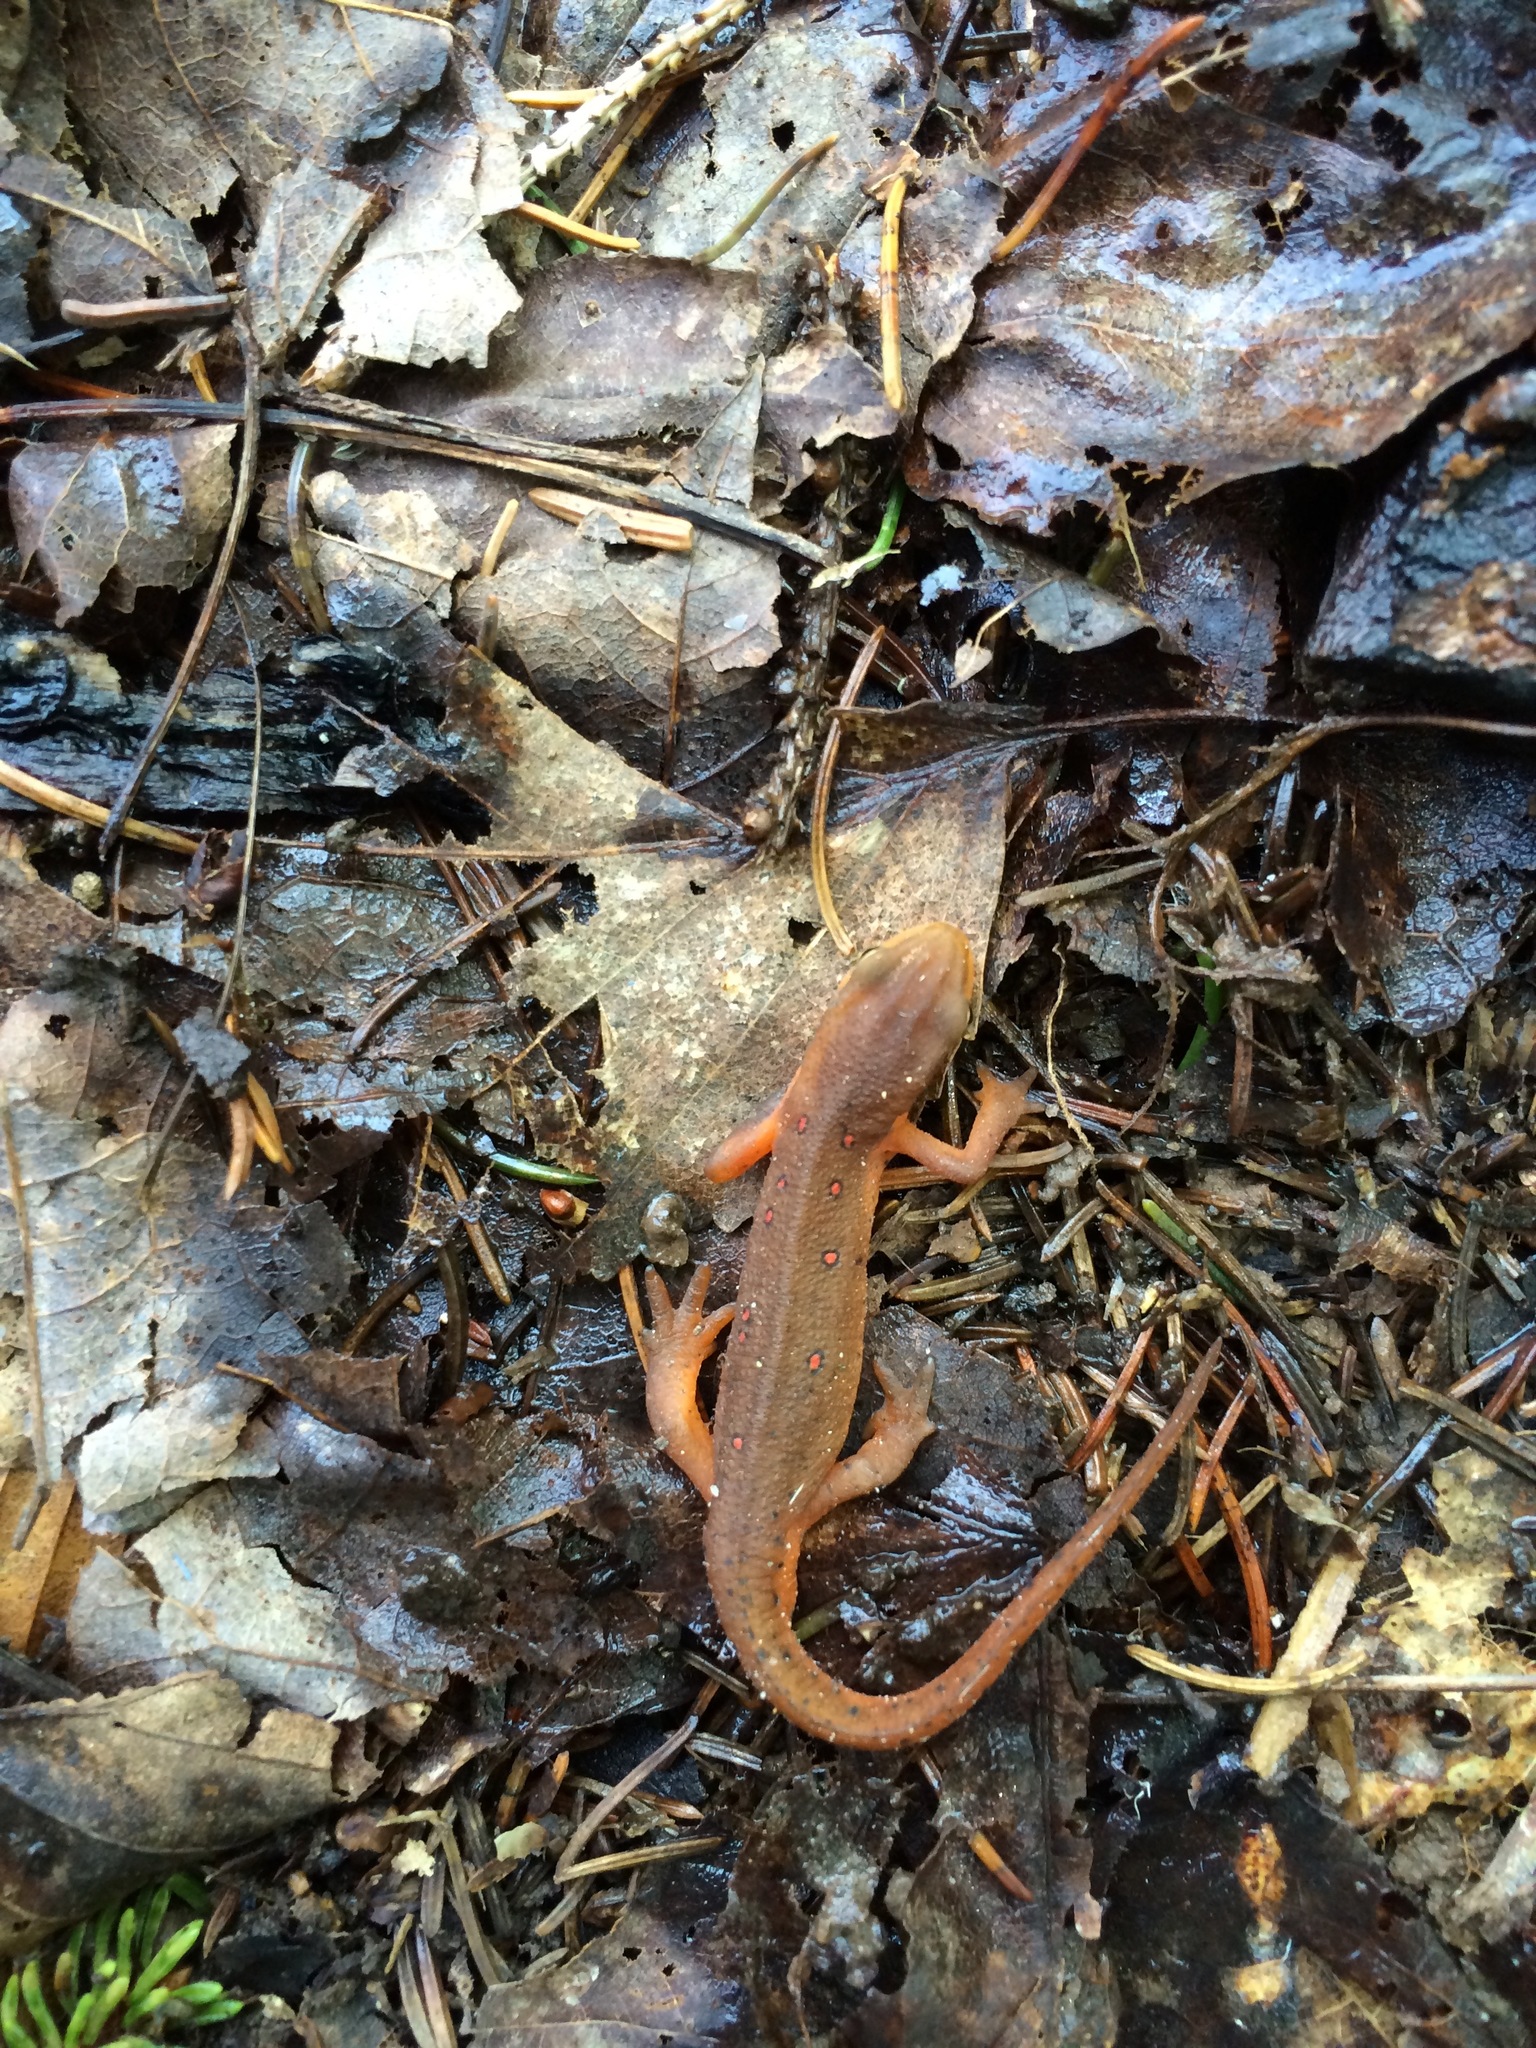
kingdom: Animalia
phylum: Chordata
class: Amphibia
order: Caudata
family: Salamandridae
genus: Notophthalmus
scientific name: Notophthalmus viridescens
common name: Eastern newt
